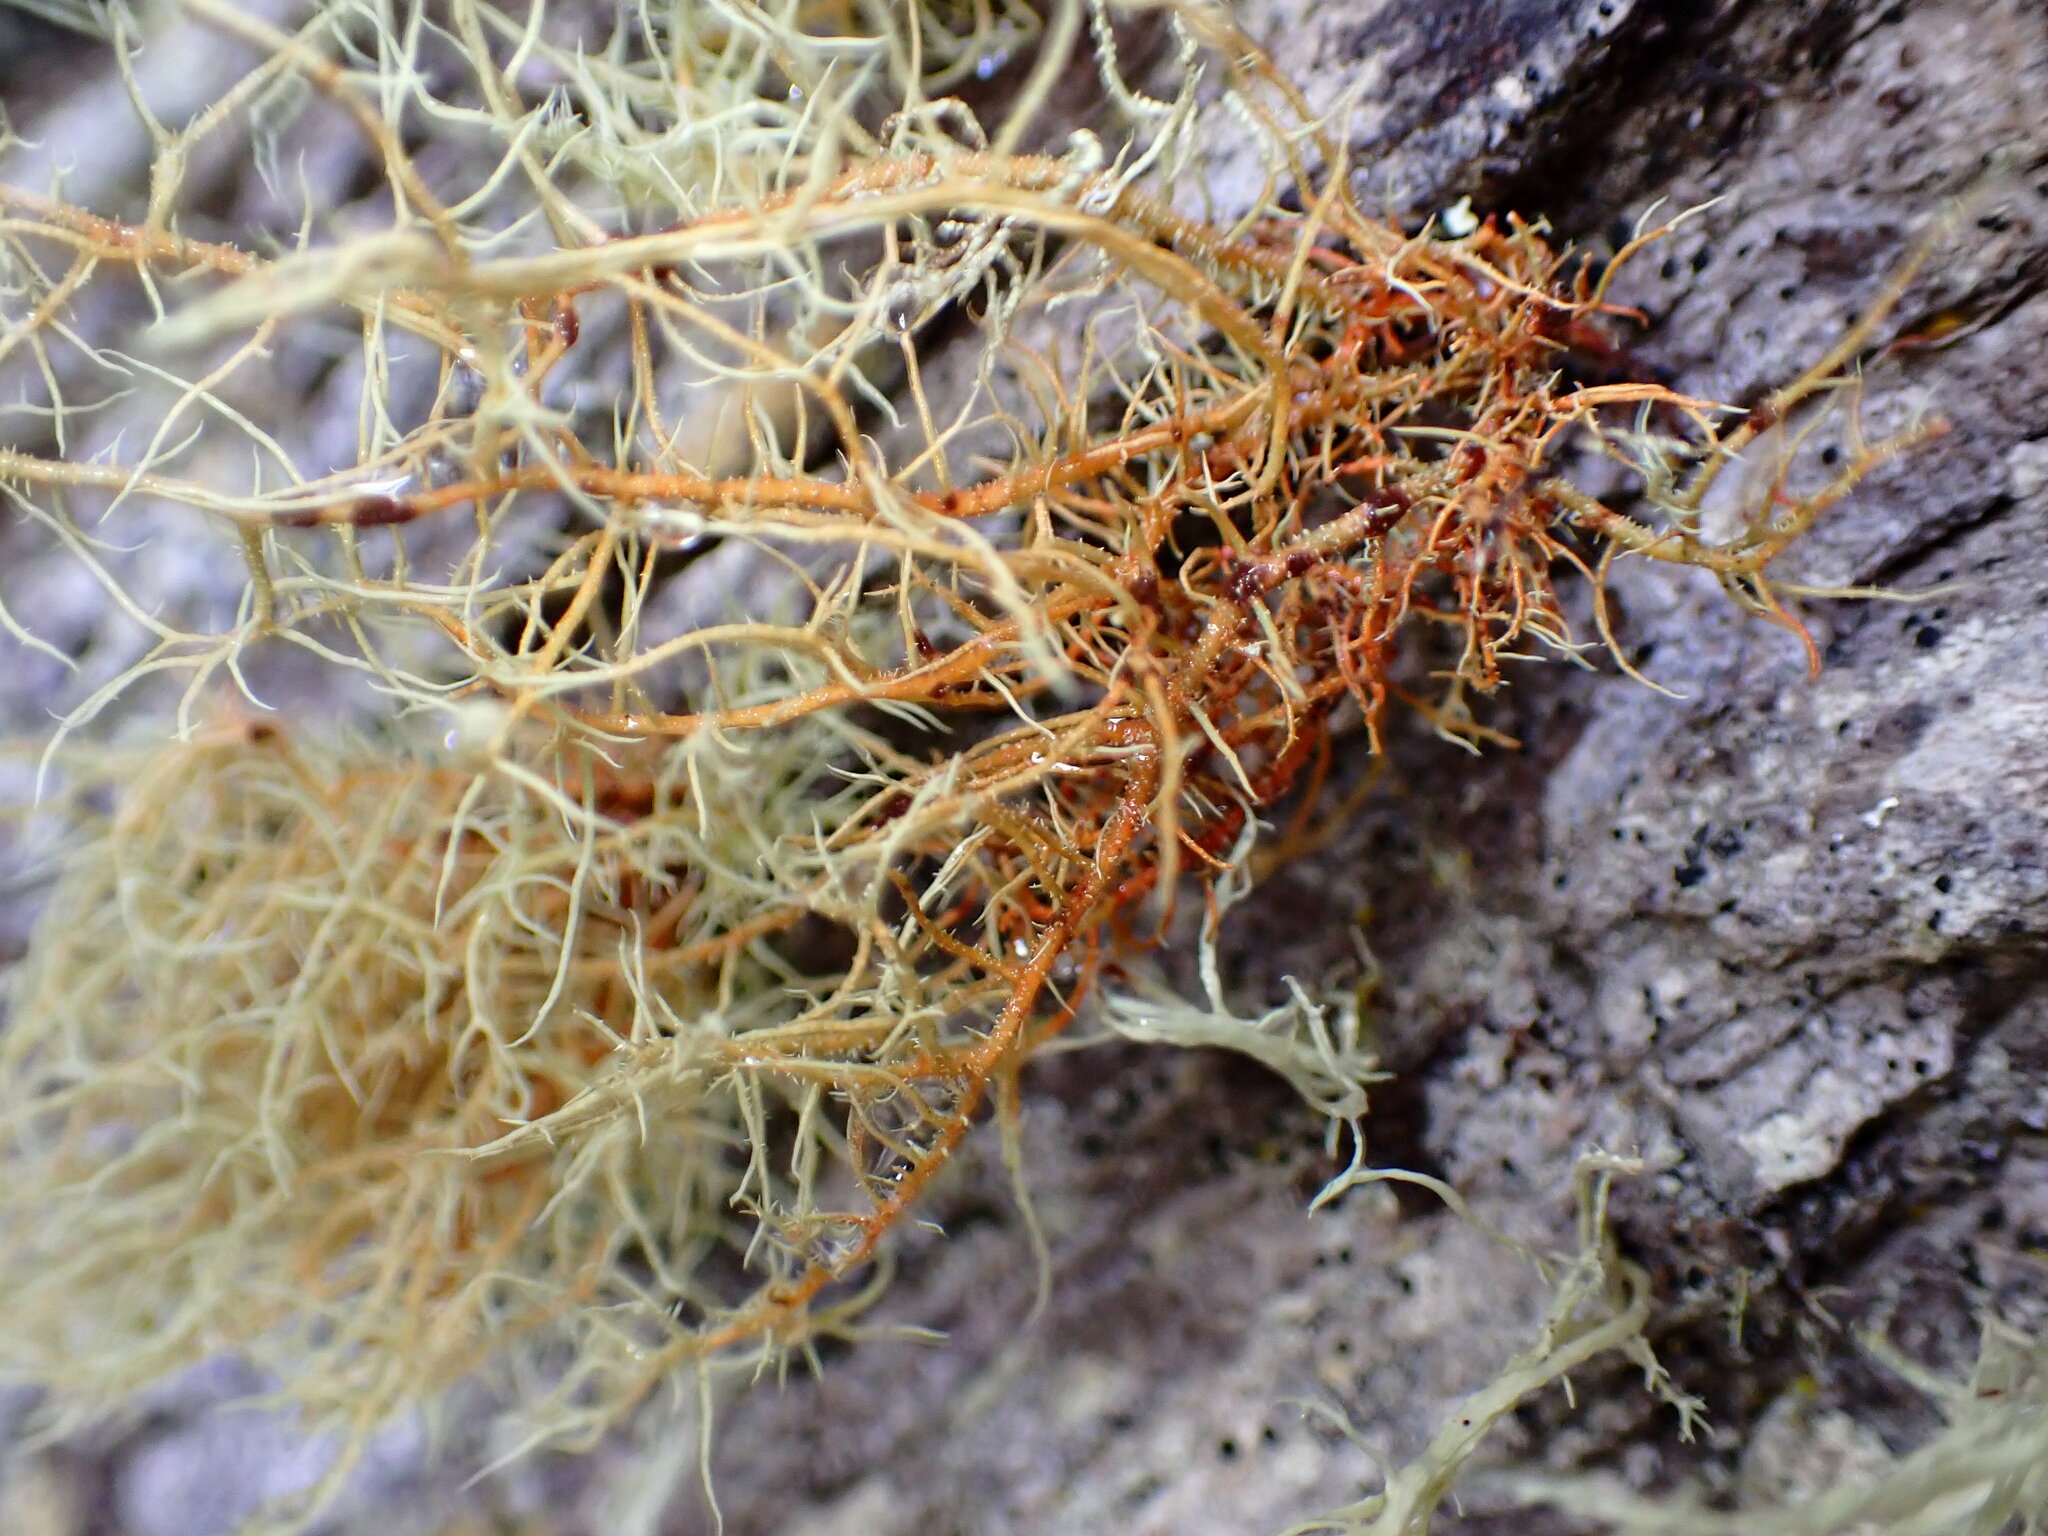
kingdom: Fungi
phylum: Ascomycota
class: Lecanoromycetes
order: Lecanorales
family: Parmeliaceae
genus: Usnea
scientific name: Usnea rubicunda
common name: Red beard lichen
